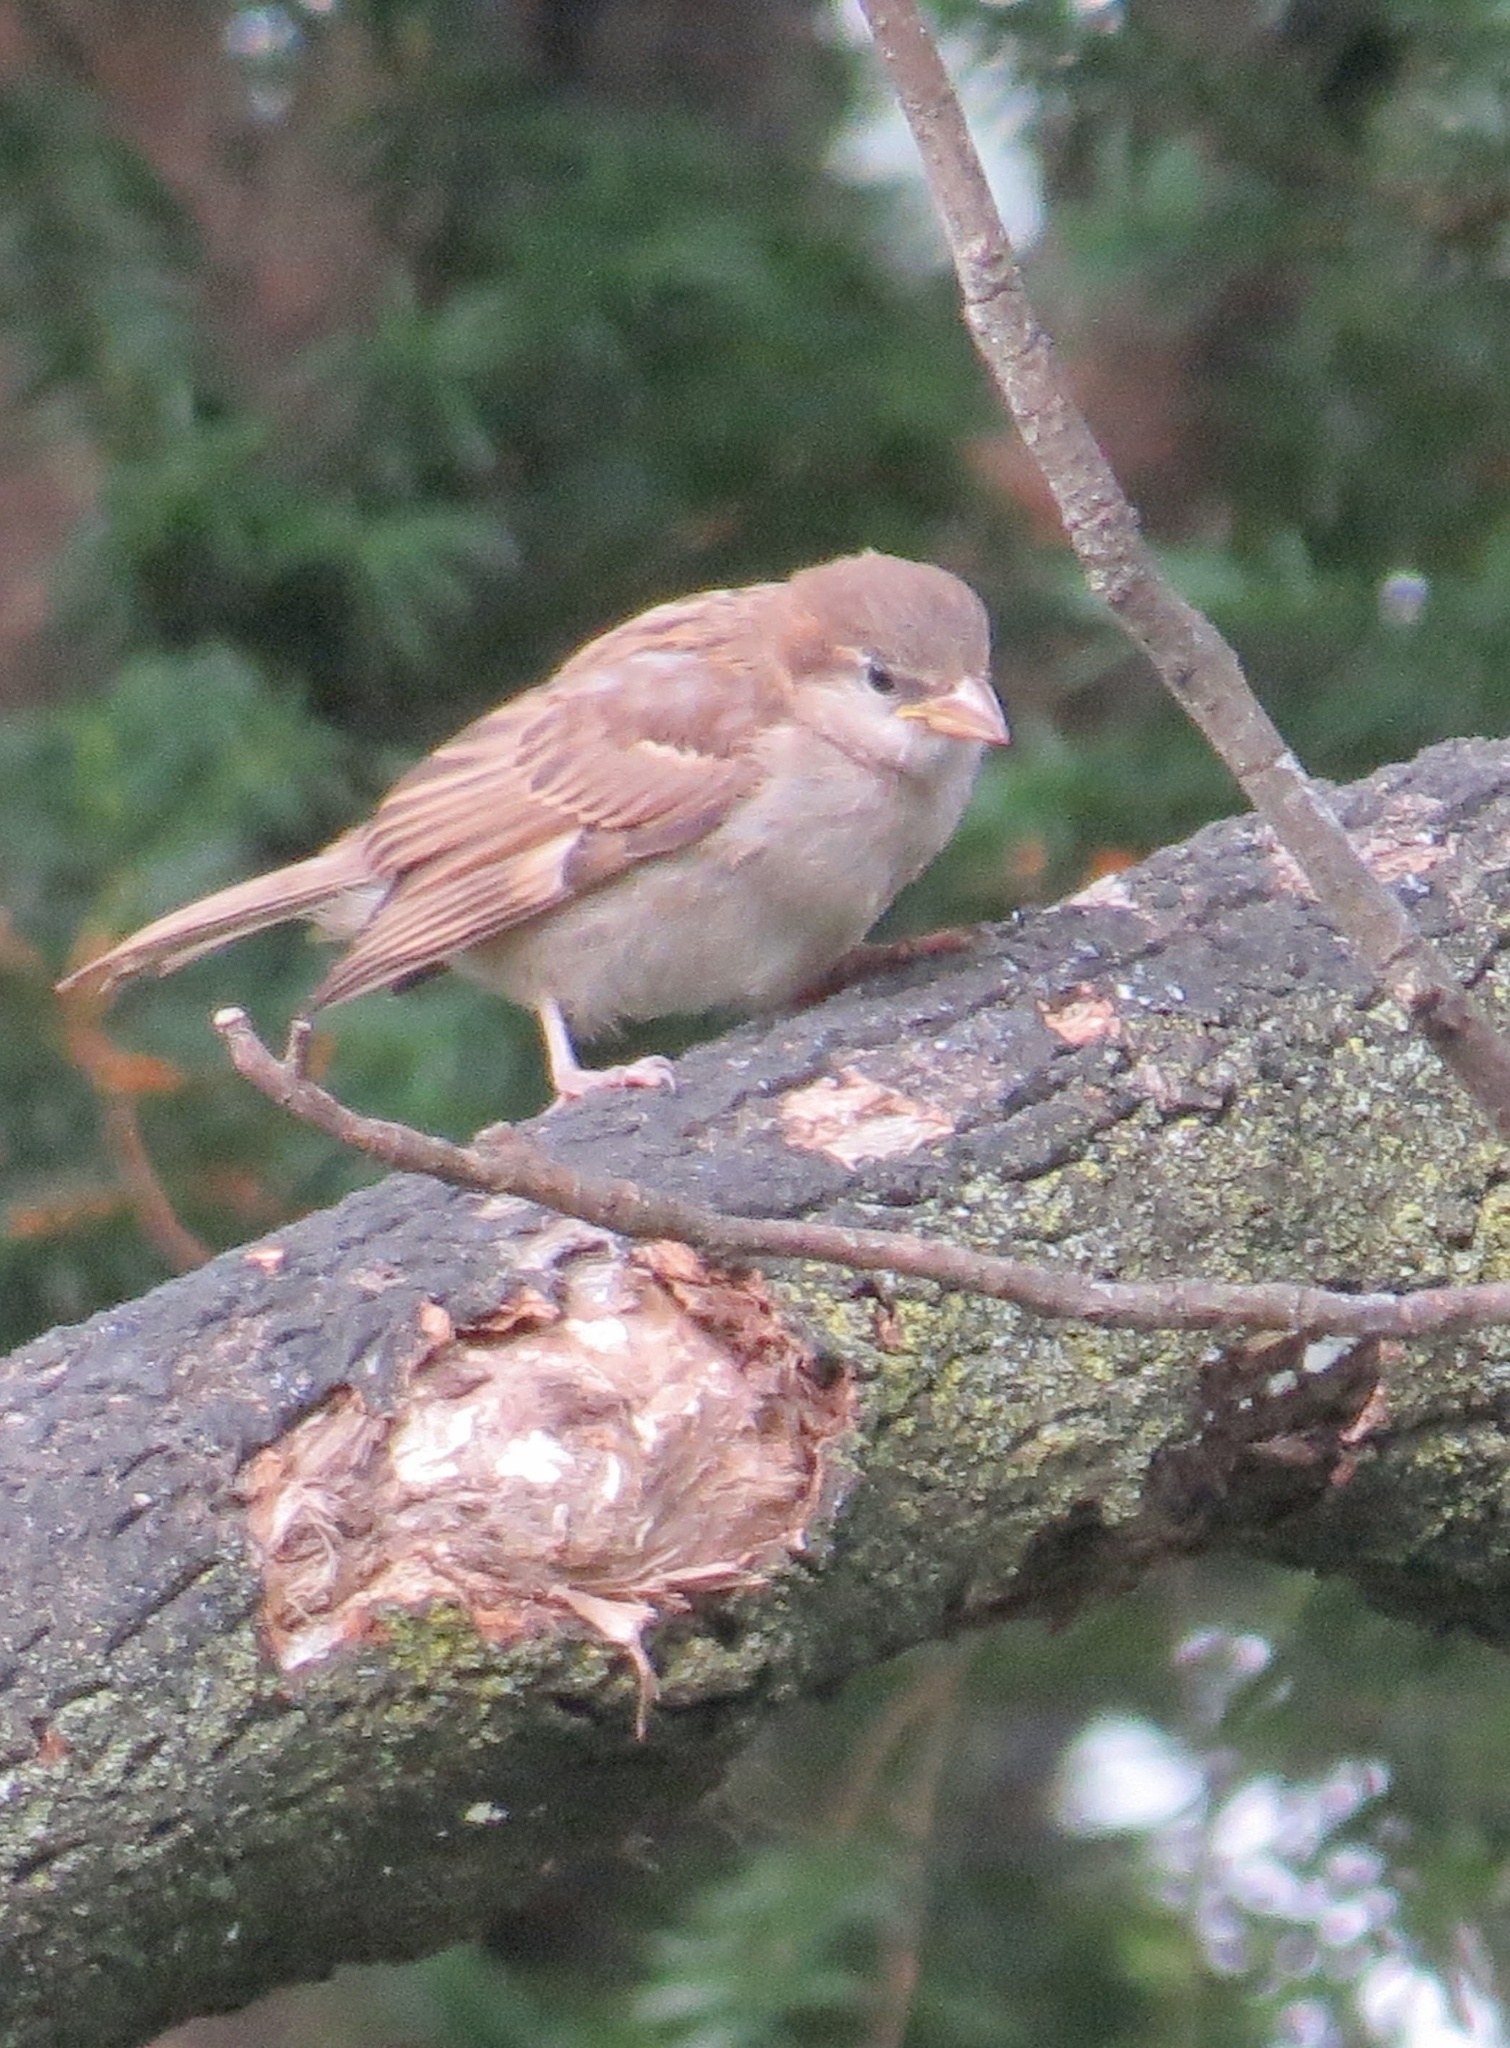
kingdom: Animalia
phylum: Chordata
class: Aves
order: Passeriformes
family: Passeridae
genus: Passer
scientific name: Passer domesticus
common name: House sparrow
